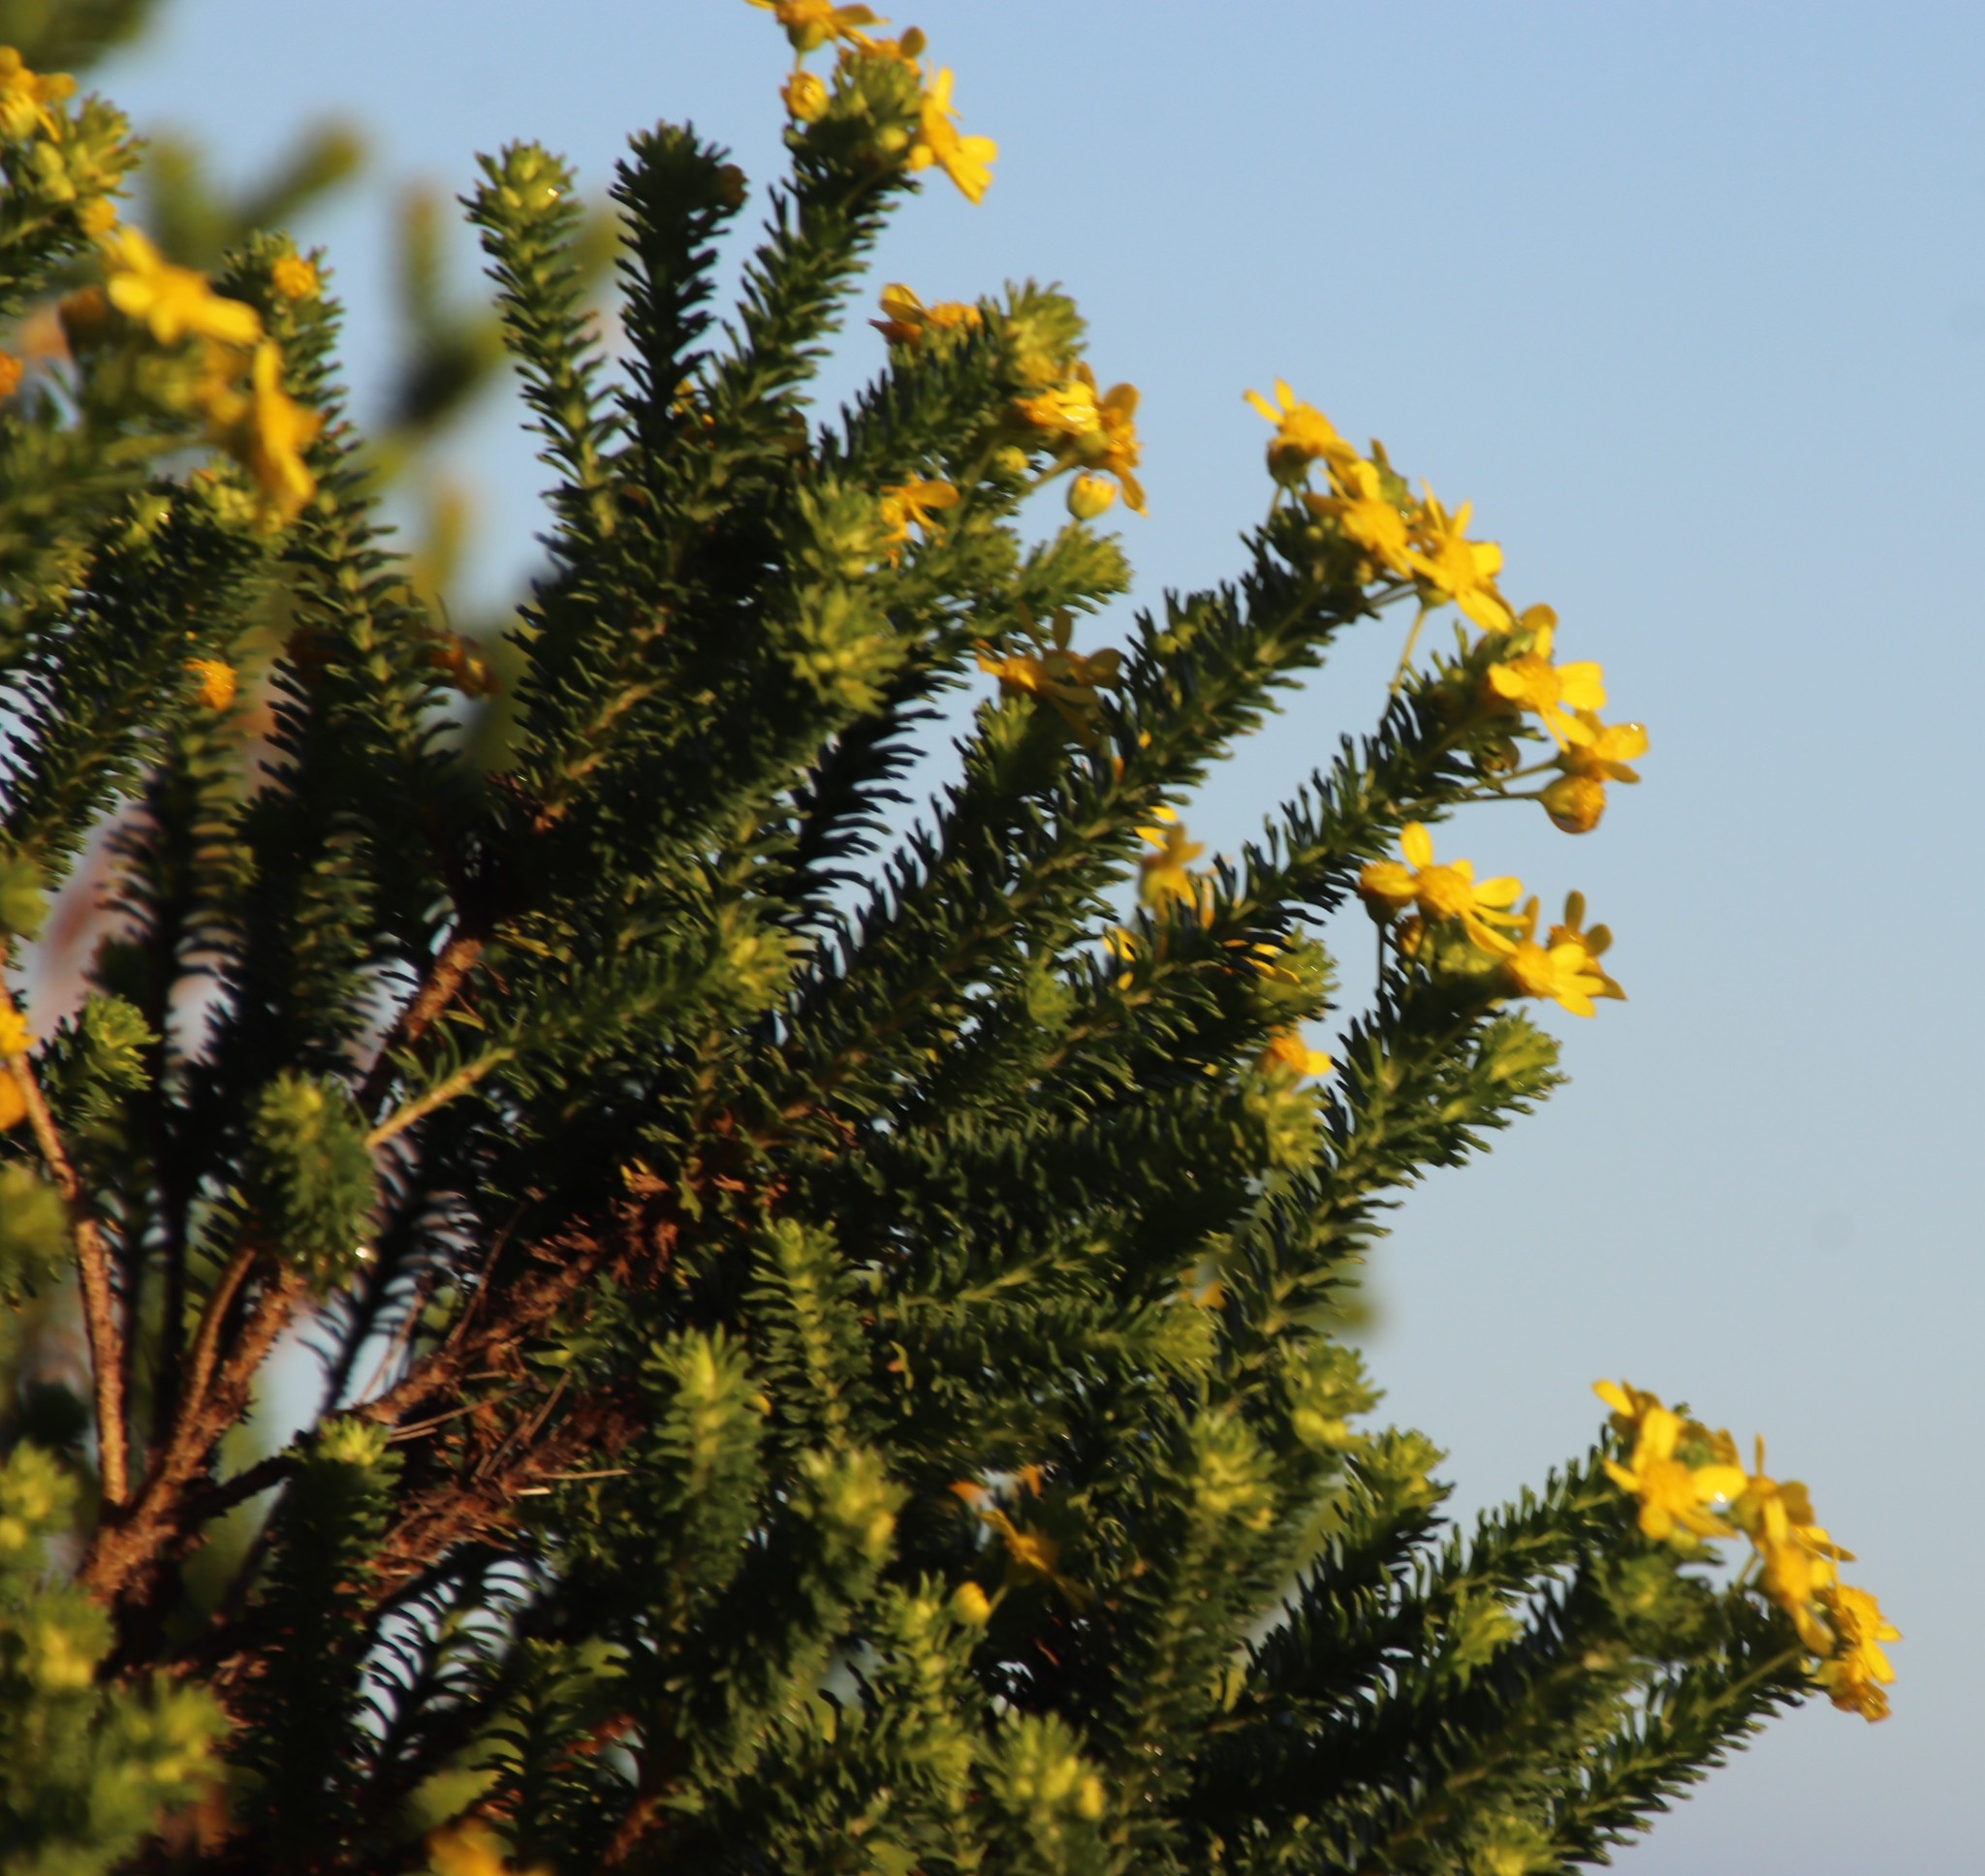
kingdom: Plantae
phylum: Tracheophyta
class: Magnoliopsida
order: Asterales
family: Asteraceae
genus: Euryops
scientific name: Euryops virgineus
